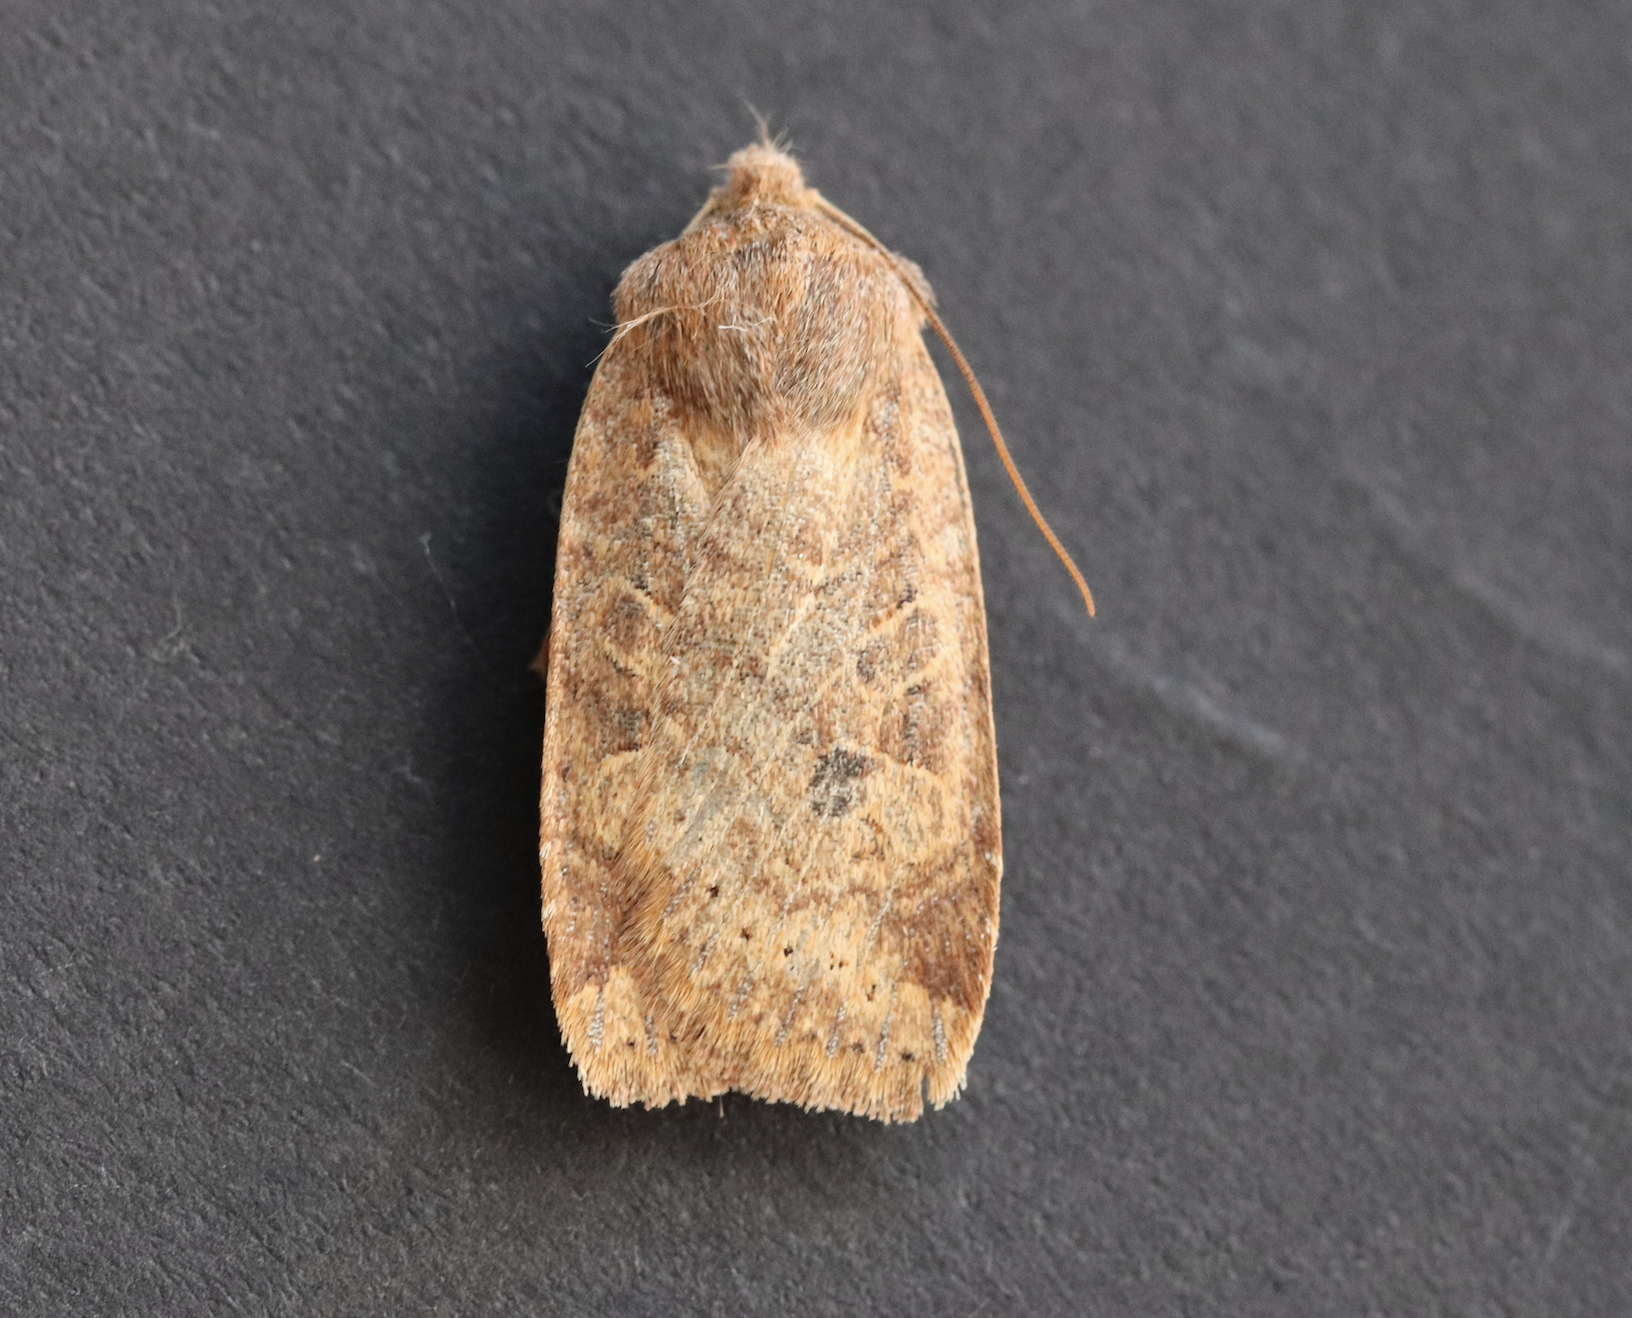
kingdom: Animalia
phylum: Arthropoda
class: Insecta
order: Lepidoptera
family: Noctuidae
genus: Conistra
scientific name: Conistra vaccinii
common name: Chestnut
